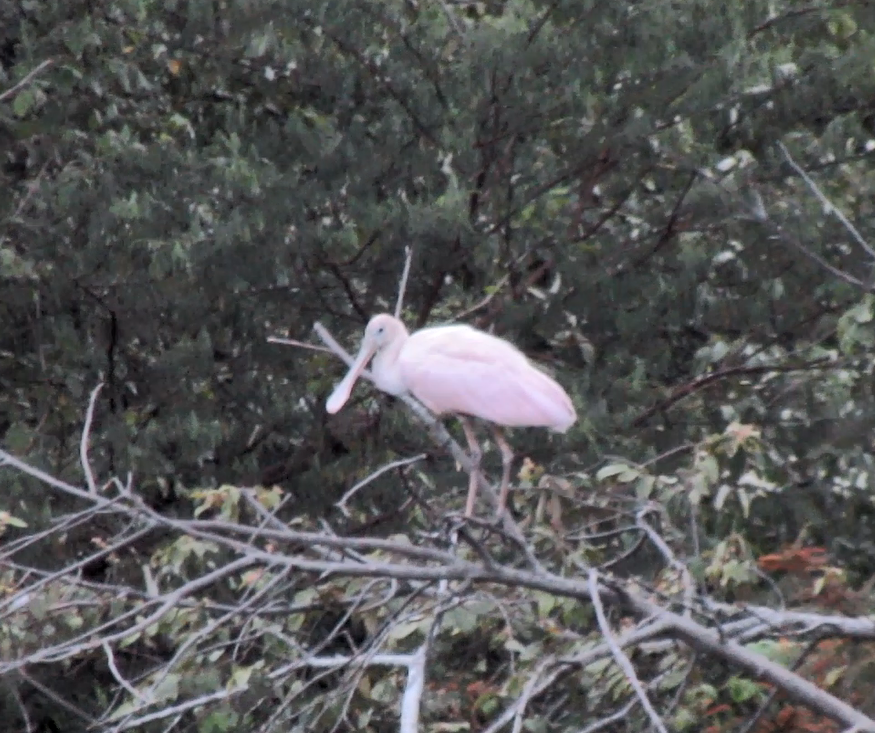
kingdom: Animalia
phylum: Chordata
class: Aves
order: Pelecaniformes
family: Threskiornithidae
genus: Platalea
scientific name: Platalea ajaja
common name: Roseate spoonbill
